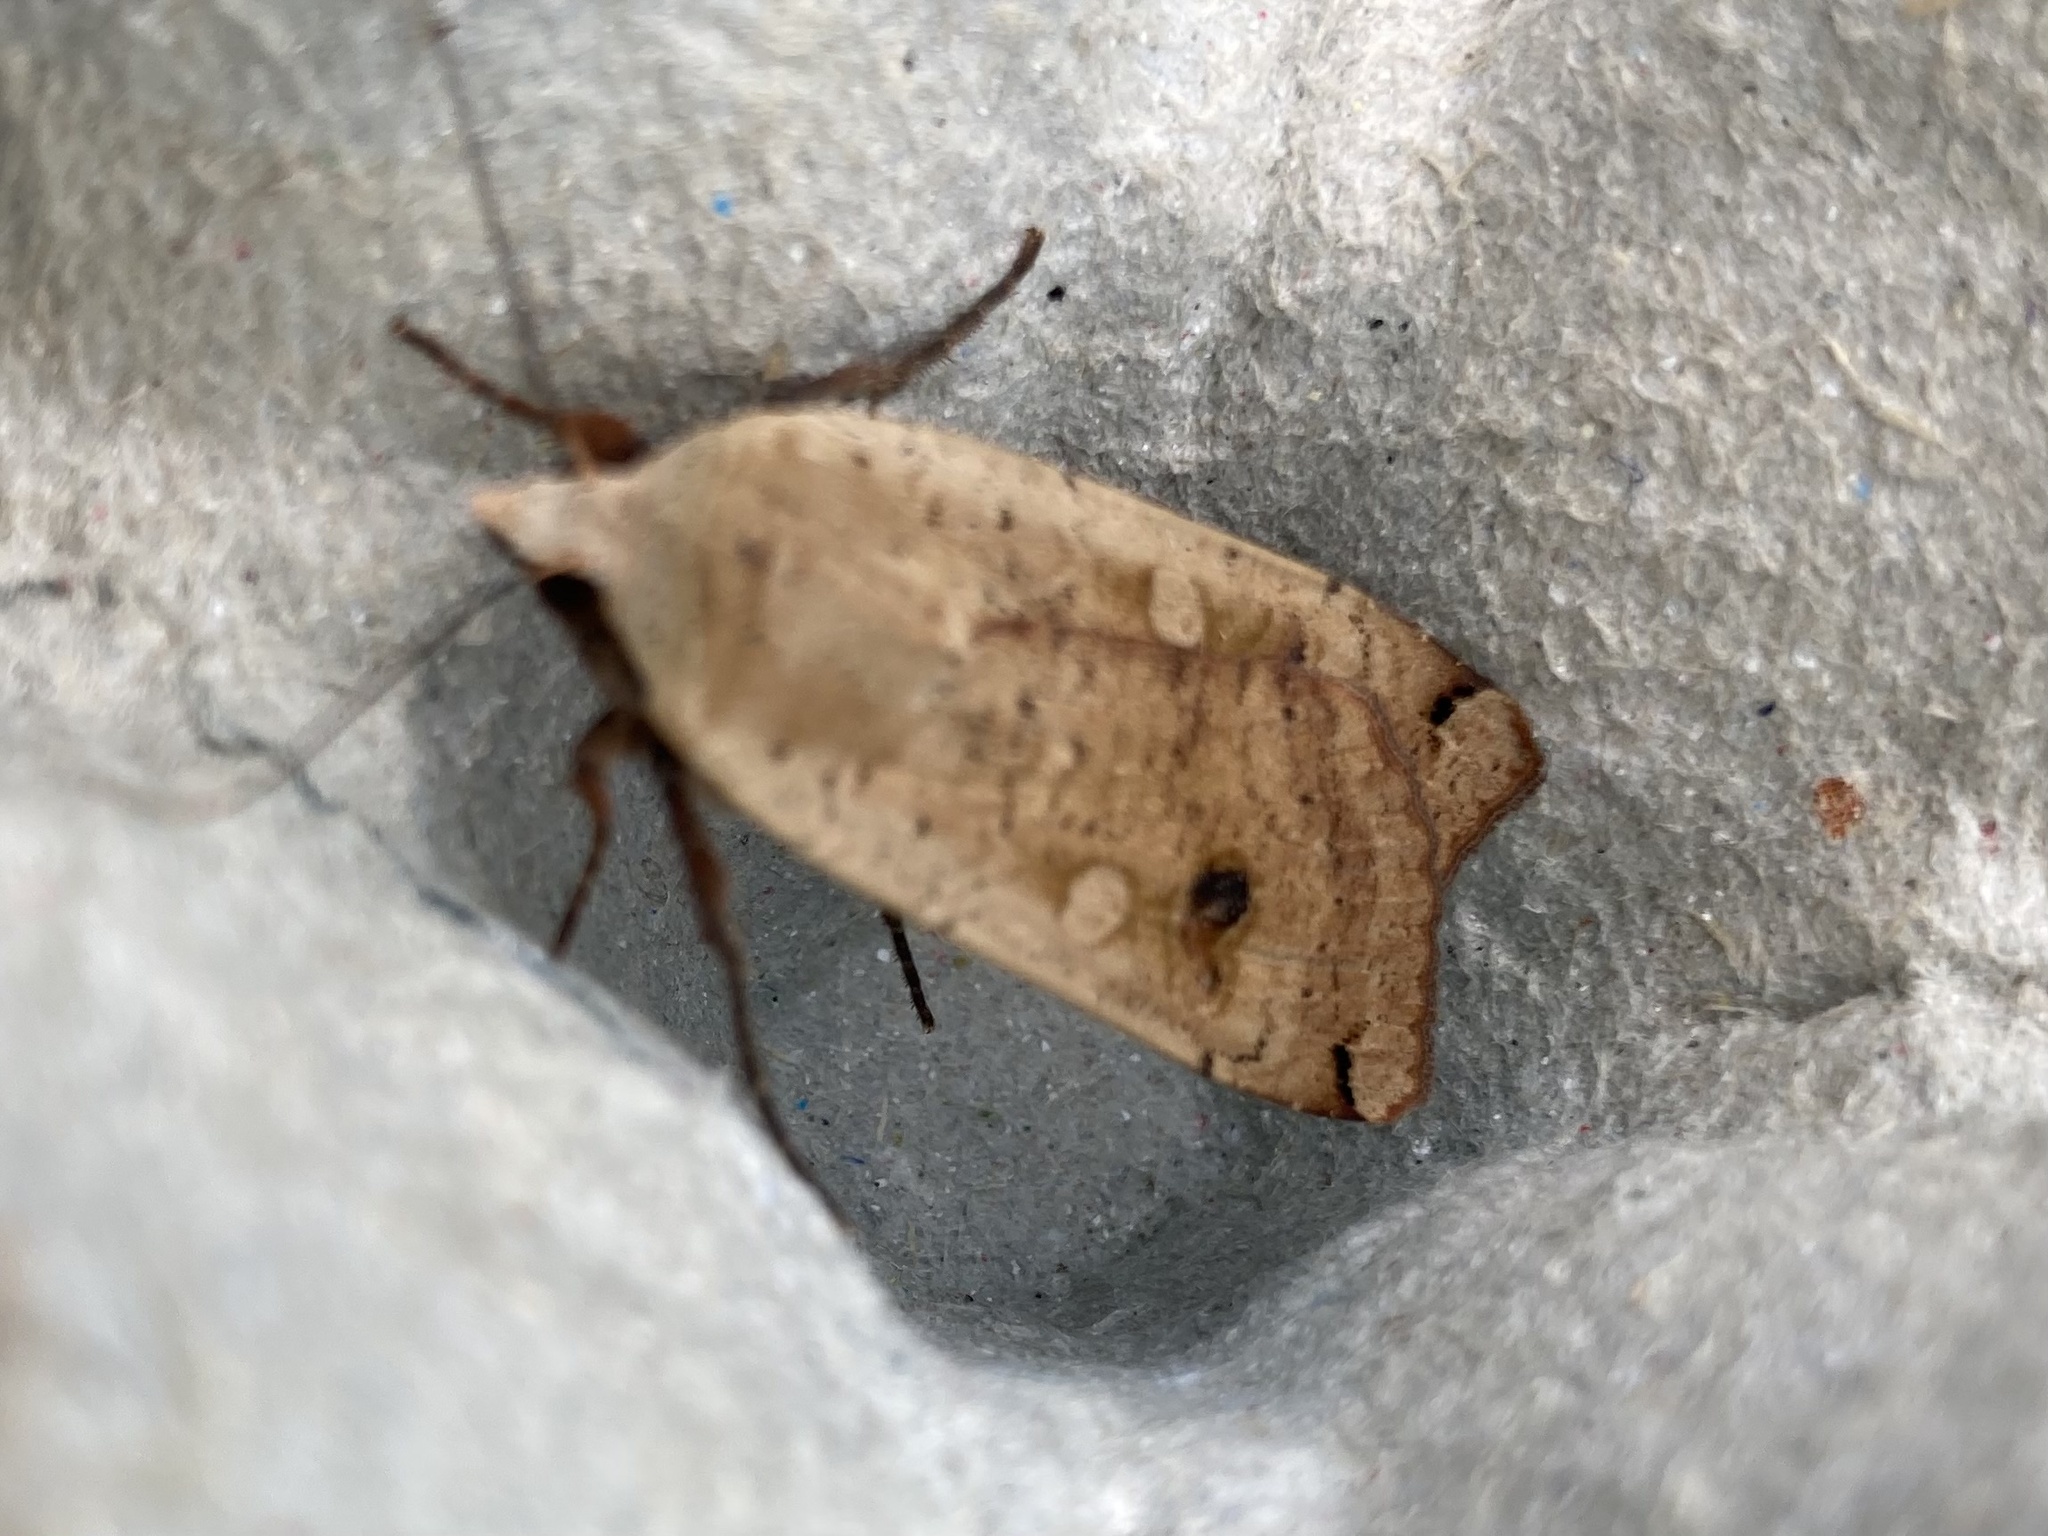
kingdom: Animalia
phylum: Arthropoda
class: Insecta
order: Lepidoptera
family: Noctuidae
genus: Noctua
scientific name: Noctua pronuba
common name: Large yellow underwing
